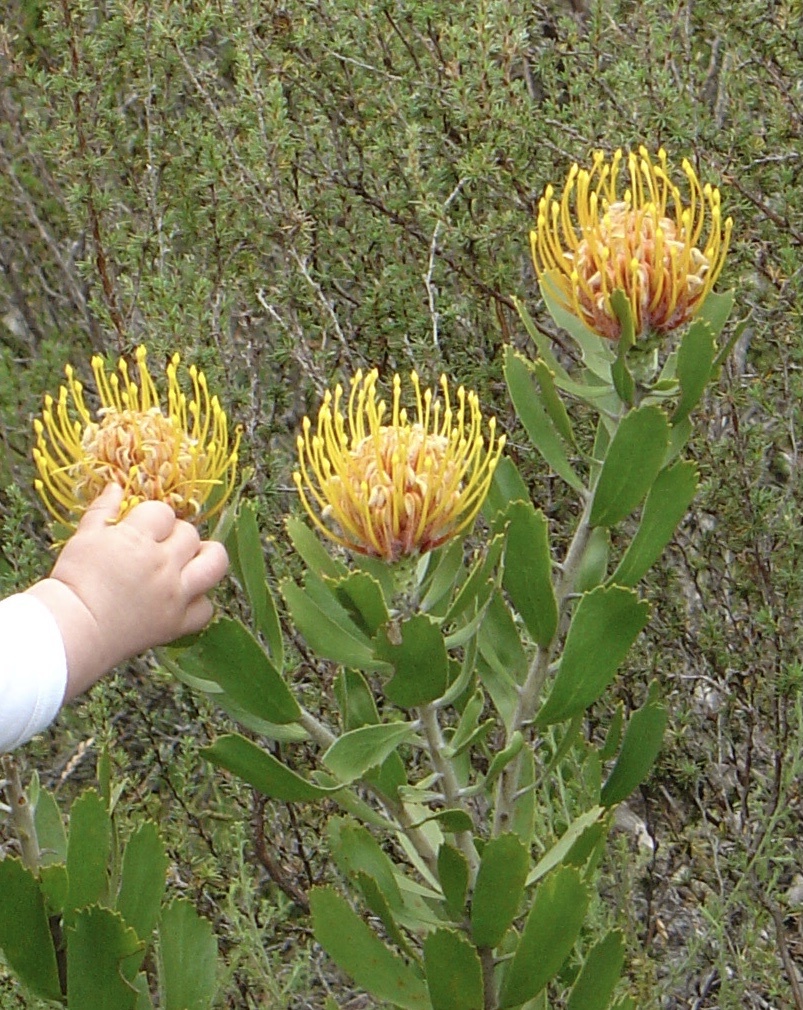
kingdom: Plantae
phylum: Tracheophyta
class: Magnoliopsida
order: Proteales
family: Proteaceae
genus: Leucospermum
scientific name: Leucospermum cuneiforme
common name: Common pincushion
